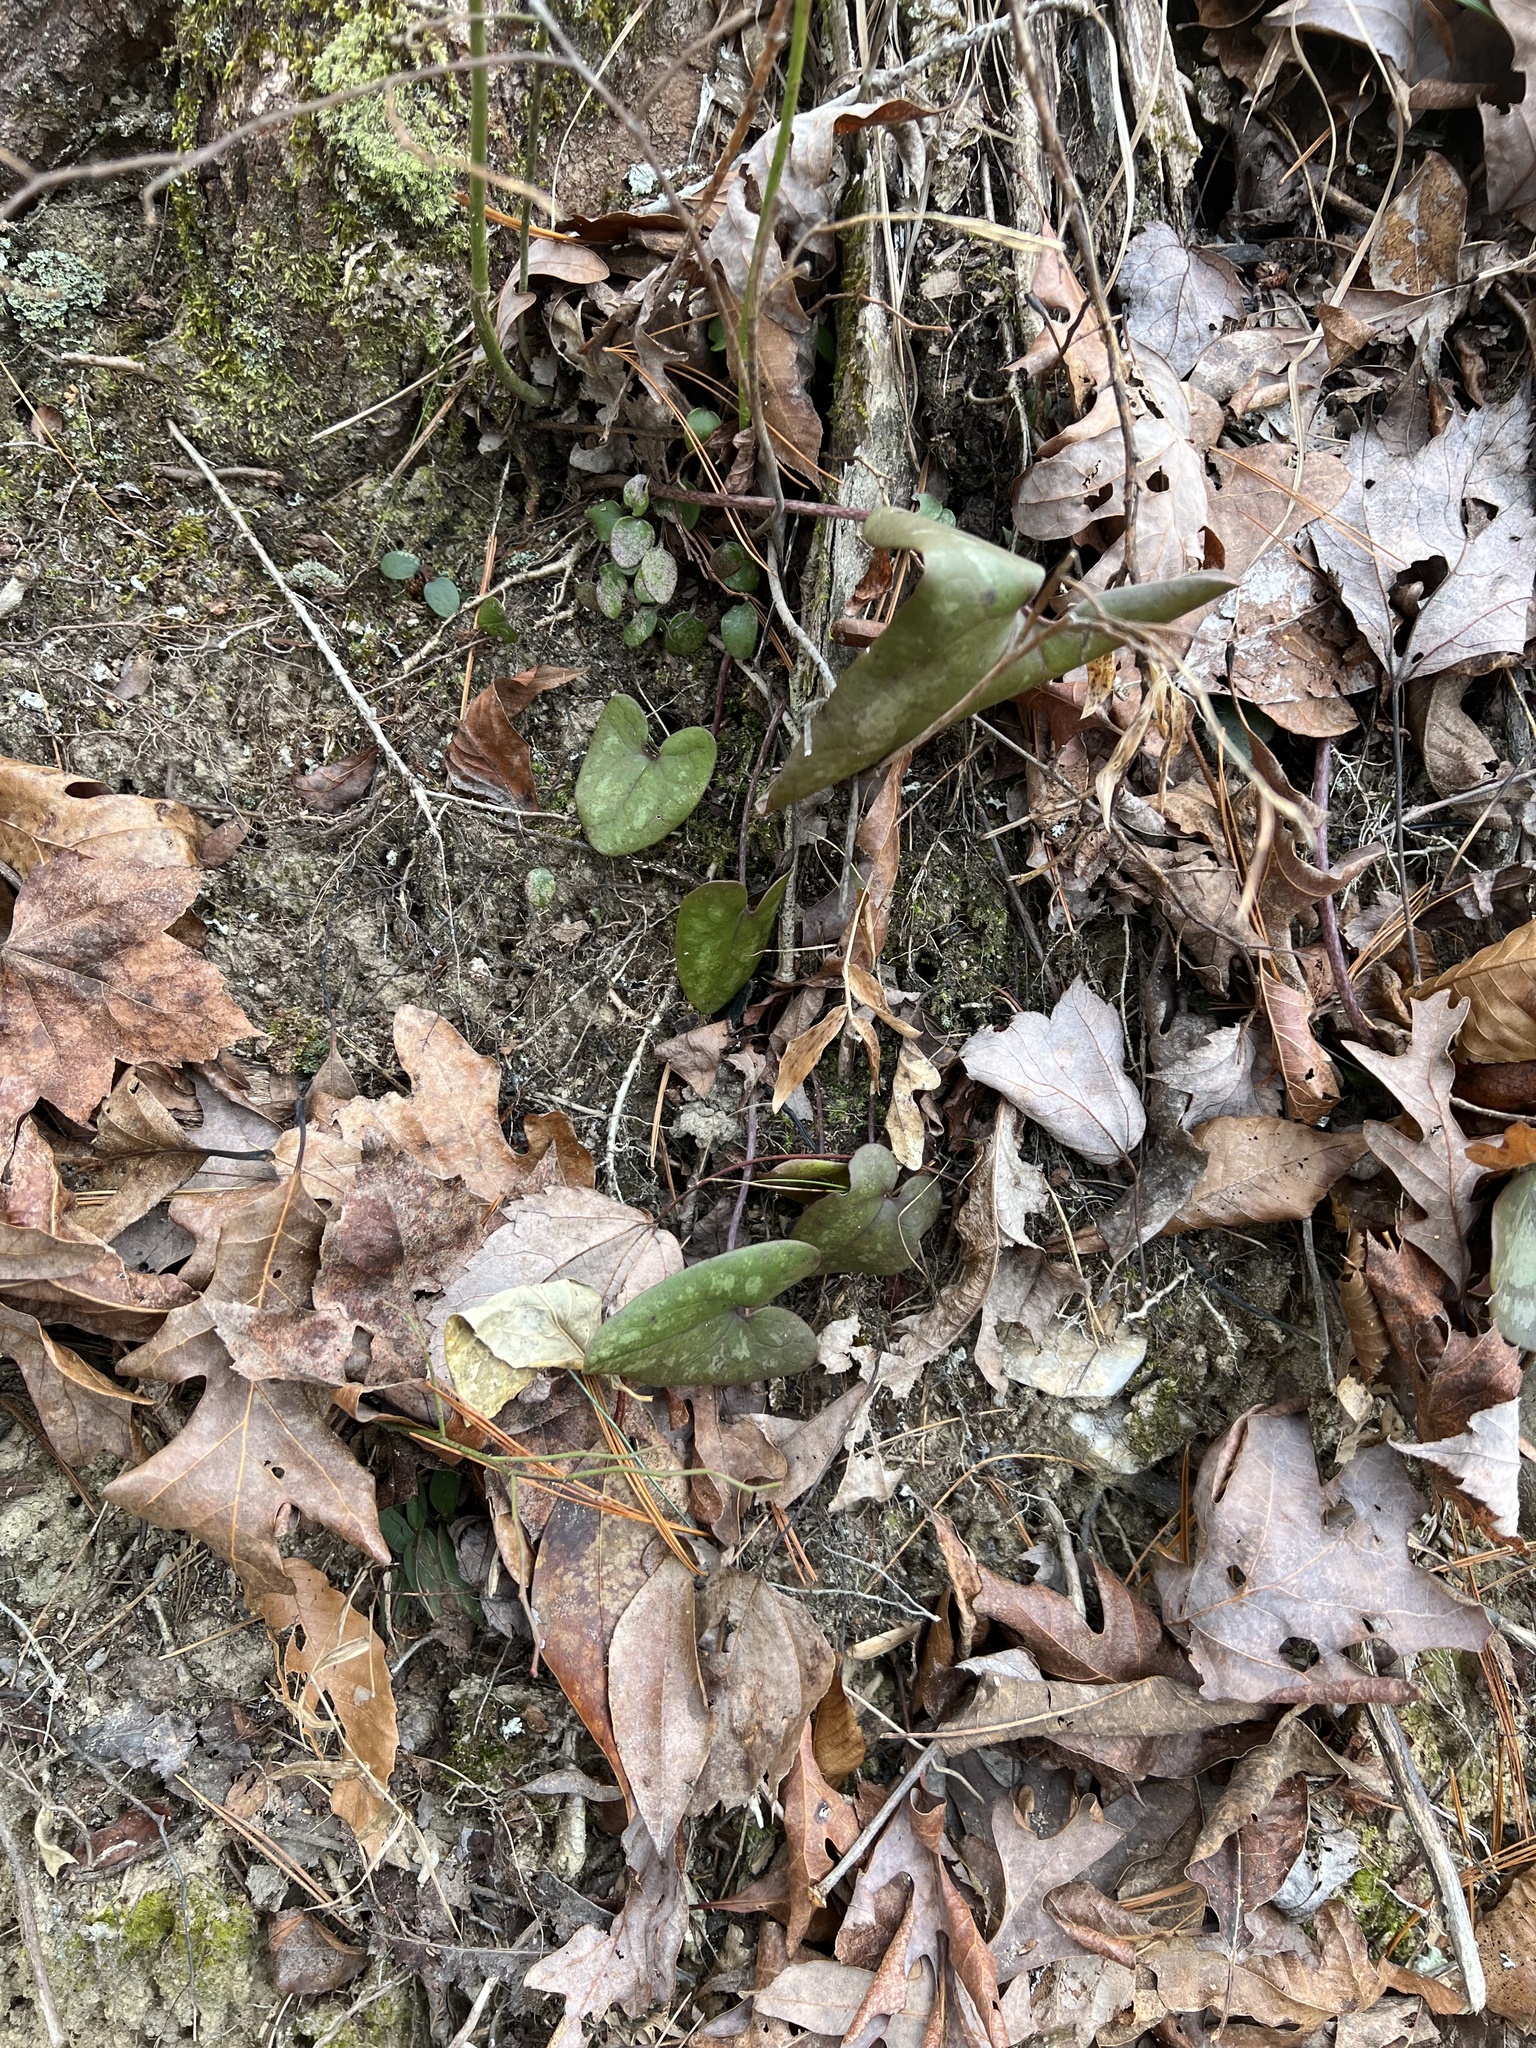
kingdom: Plantae
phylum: Tracheophyta
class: Magnoliopsida
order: Piperales
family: Aristolochiaceae
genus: Hexastylis
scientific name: Hexastylis arifolia
